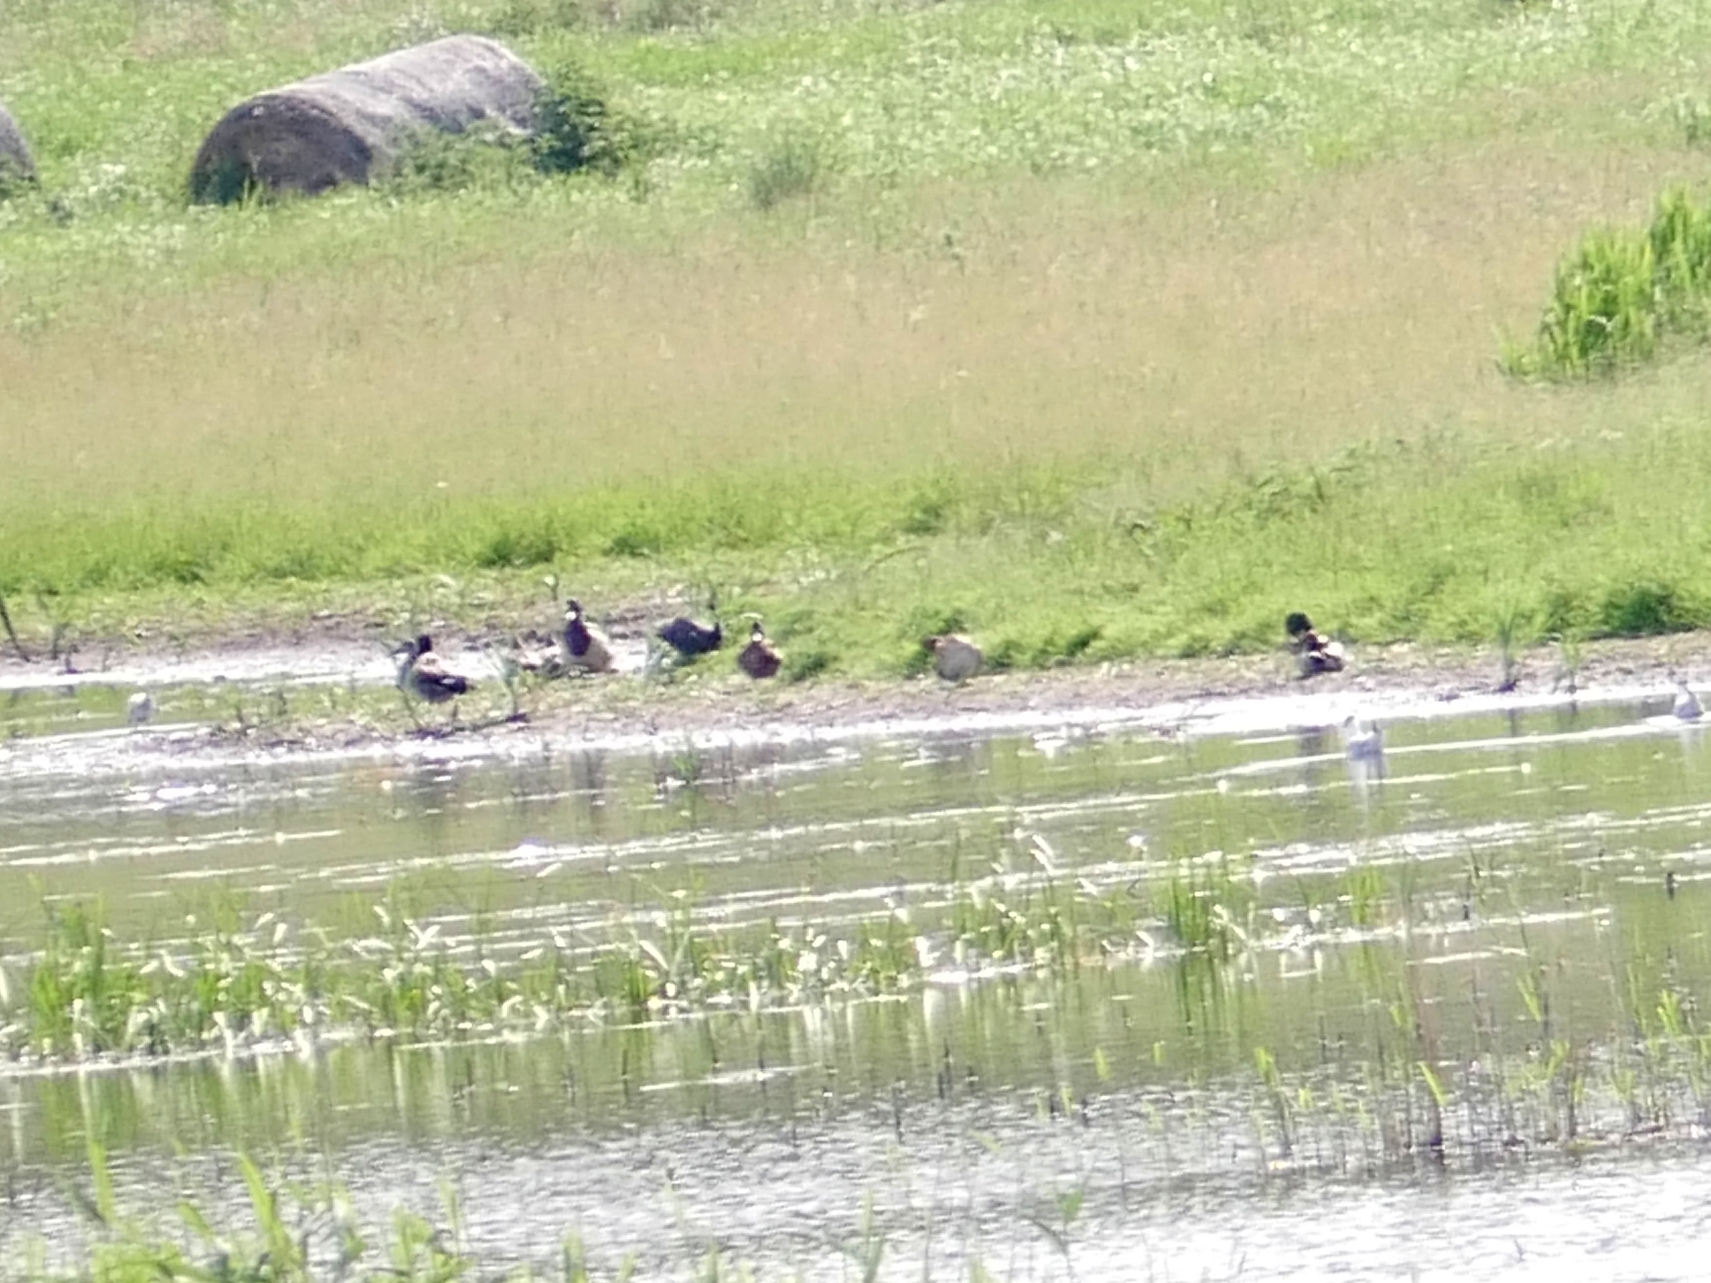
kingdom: Animalia
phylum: Chordata
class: Aves
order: Anseriformes
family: Anatidae
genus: Anas
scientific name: Anas platyrhynchos
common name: Mallard
